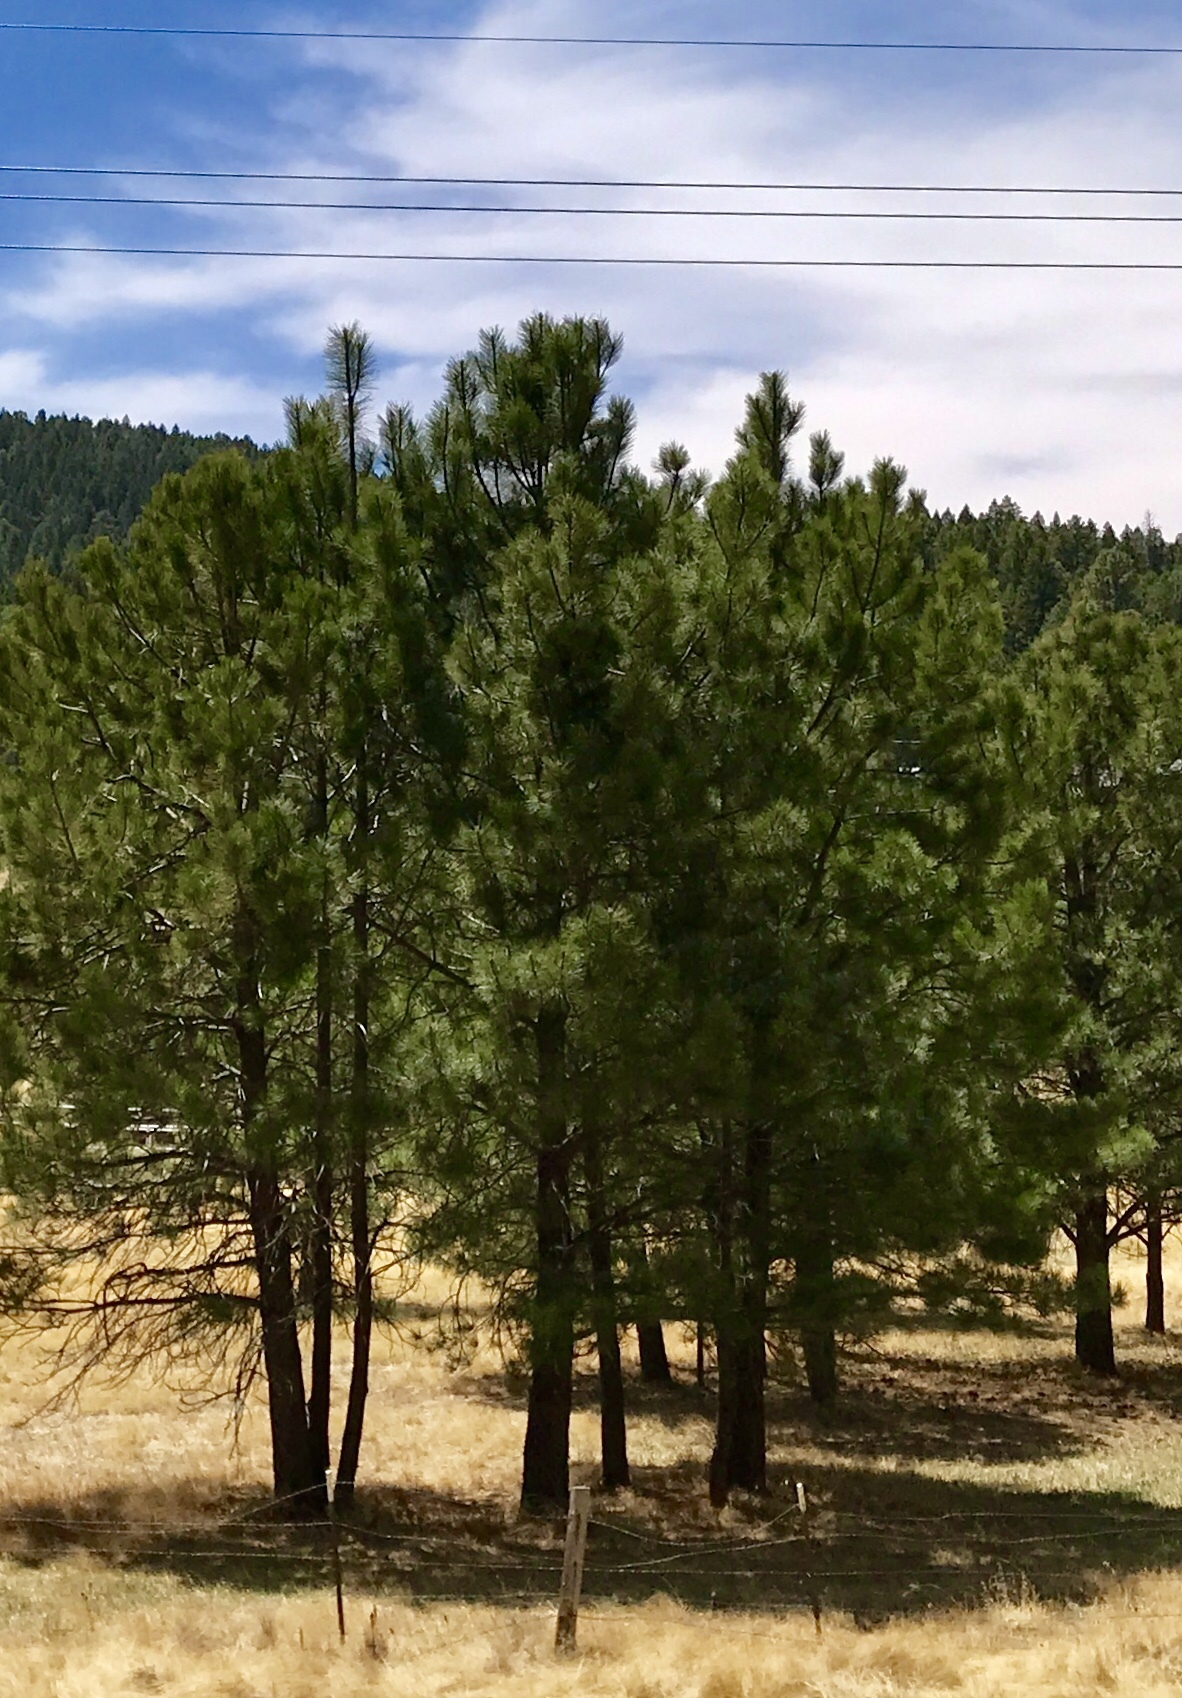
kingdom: Plantae
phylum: Tracheophyta
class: Pinopsida
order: Pinales
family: Pinaceae
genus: Pinus
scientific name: Pinus ponderosa
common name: Western yellow-pine
